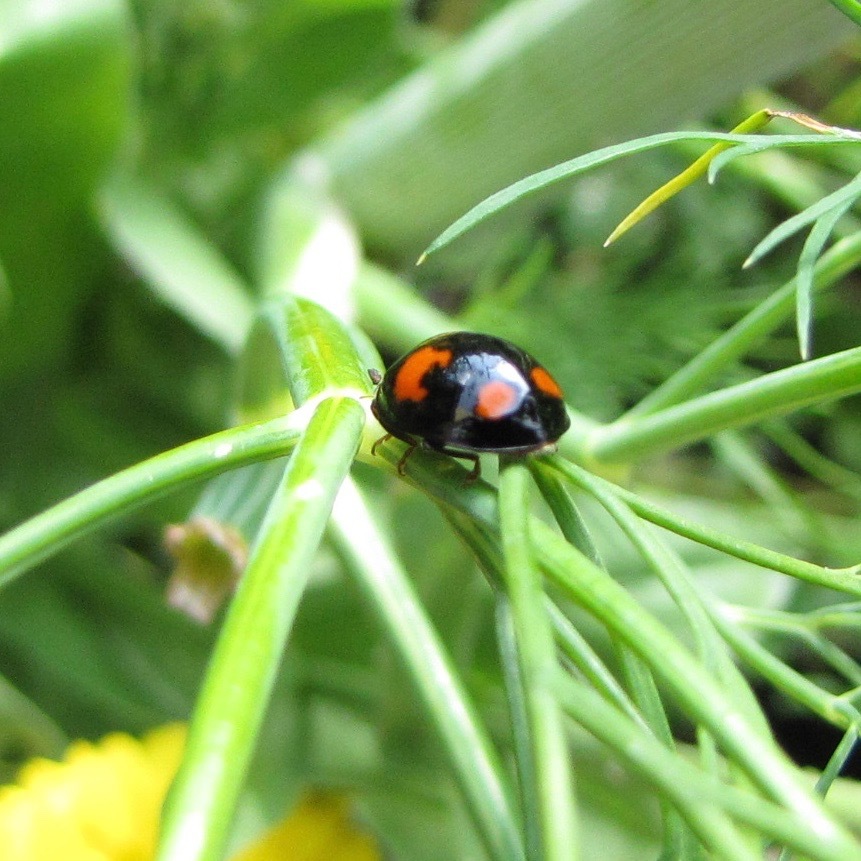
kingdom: Animalia
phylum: Arthropoda
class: Insecta
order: Coleoptera
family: Coccinellidae
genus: Harmonia
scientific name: Harmonia axyridis
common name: Harlequin ladybird
